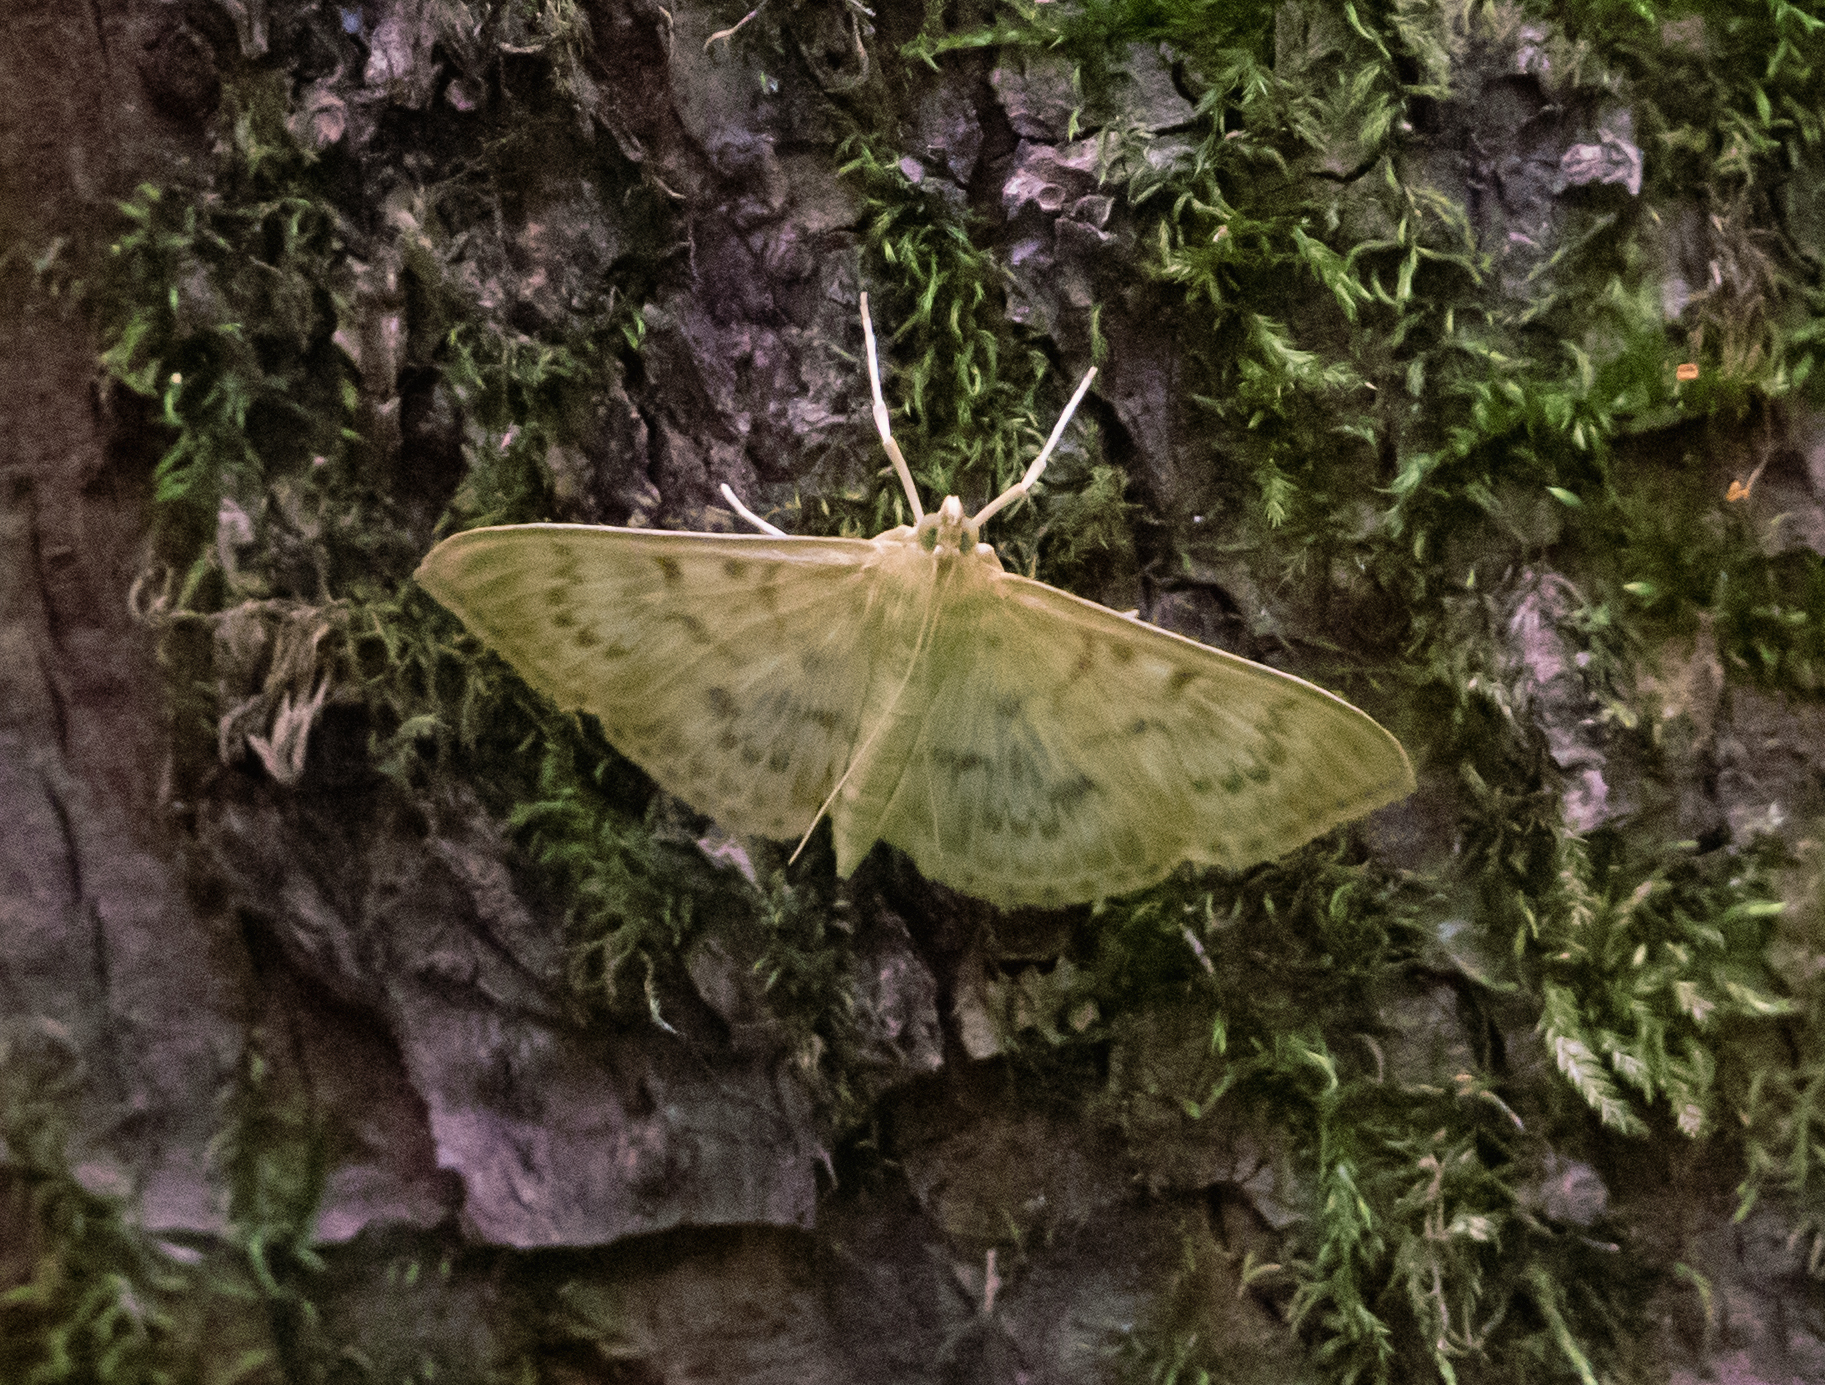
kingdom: Animalia
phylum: Arthropoda
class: Insecta
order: Lepidoptera
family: Crambidae
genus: Patania
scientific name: Patania ruralis
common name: Mother of pearl
